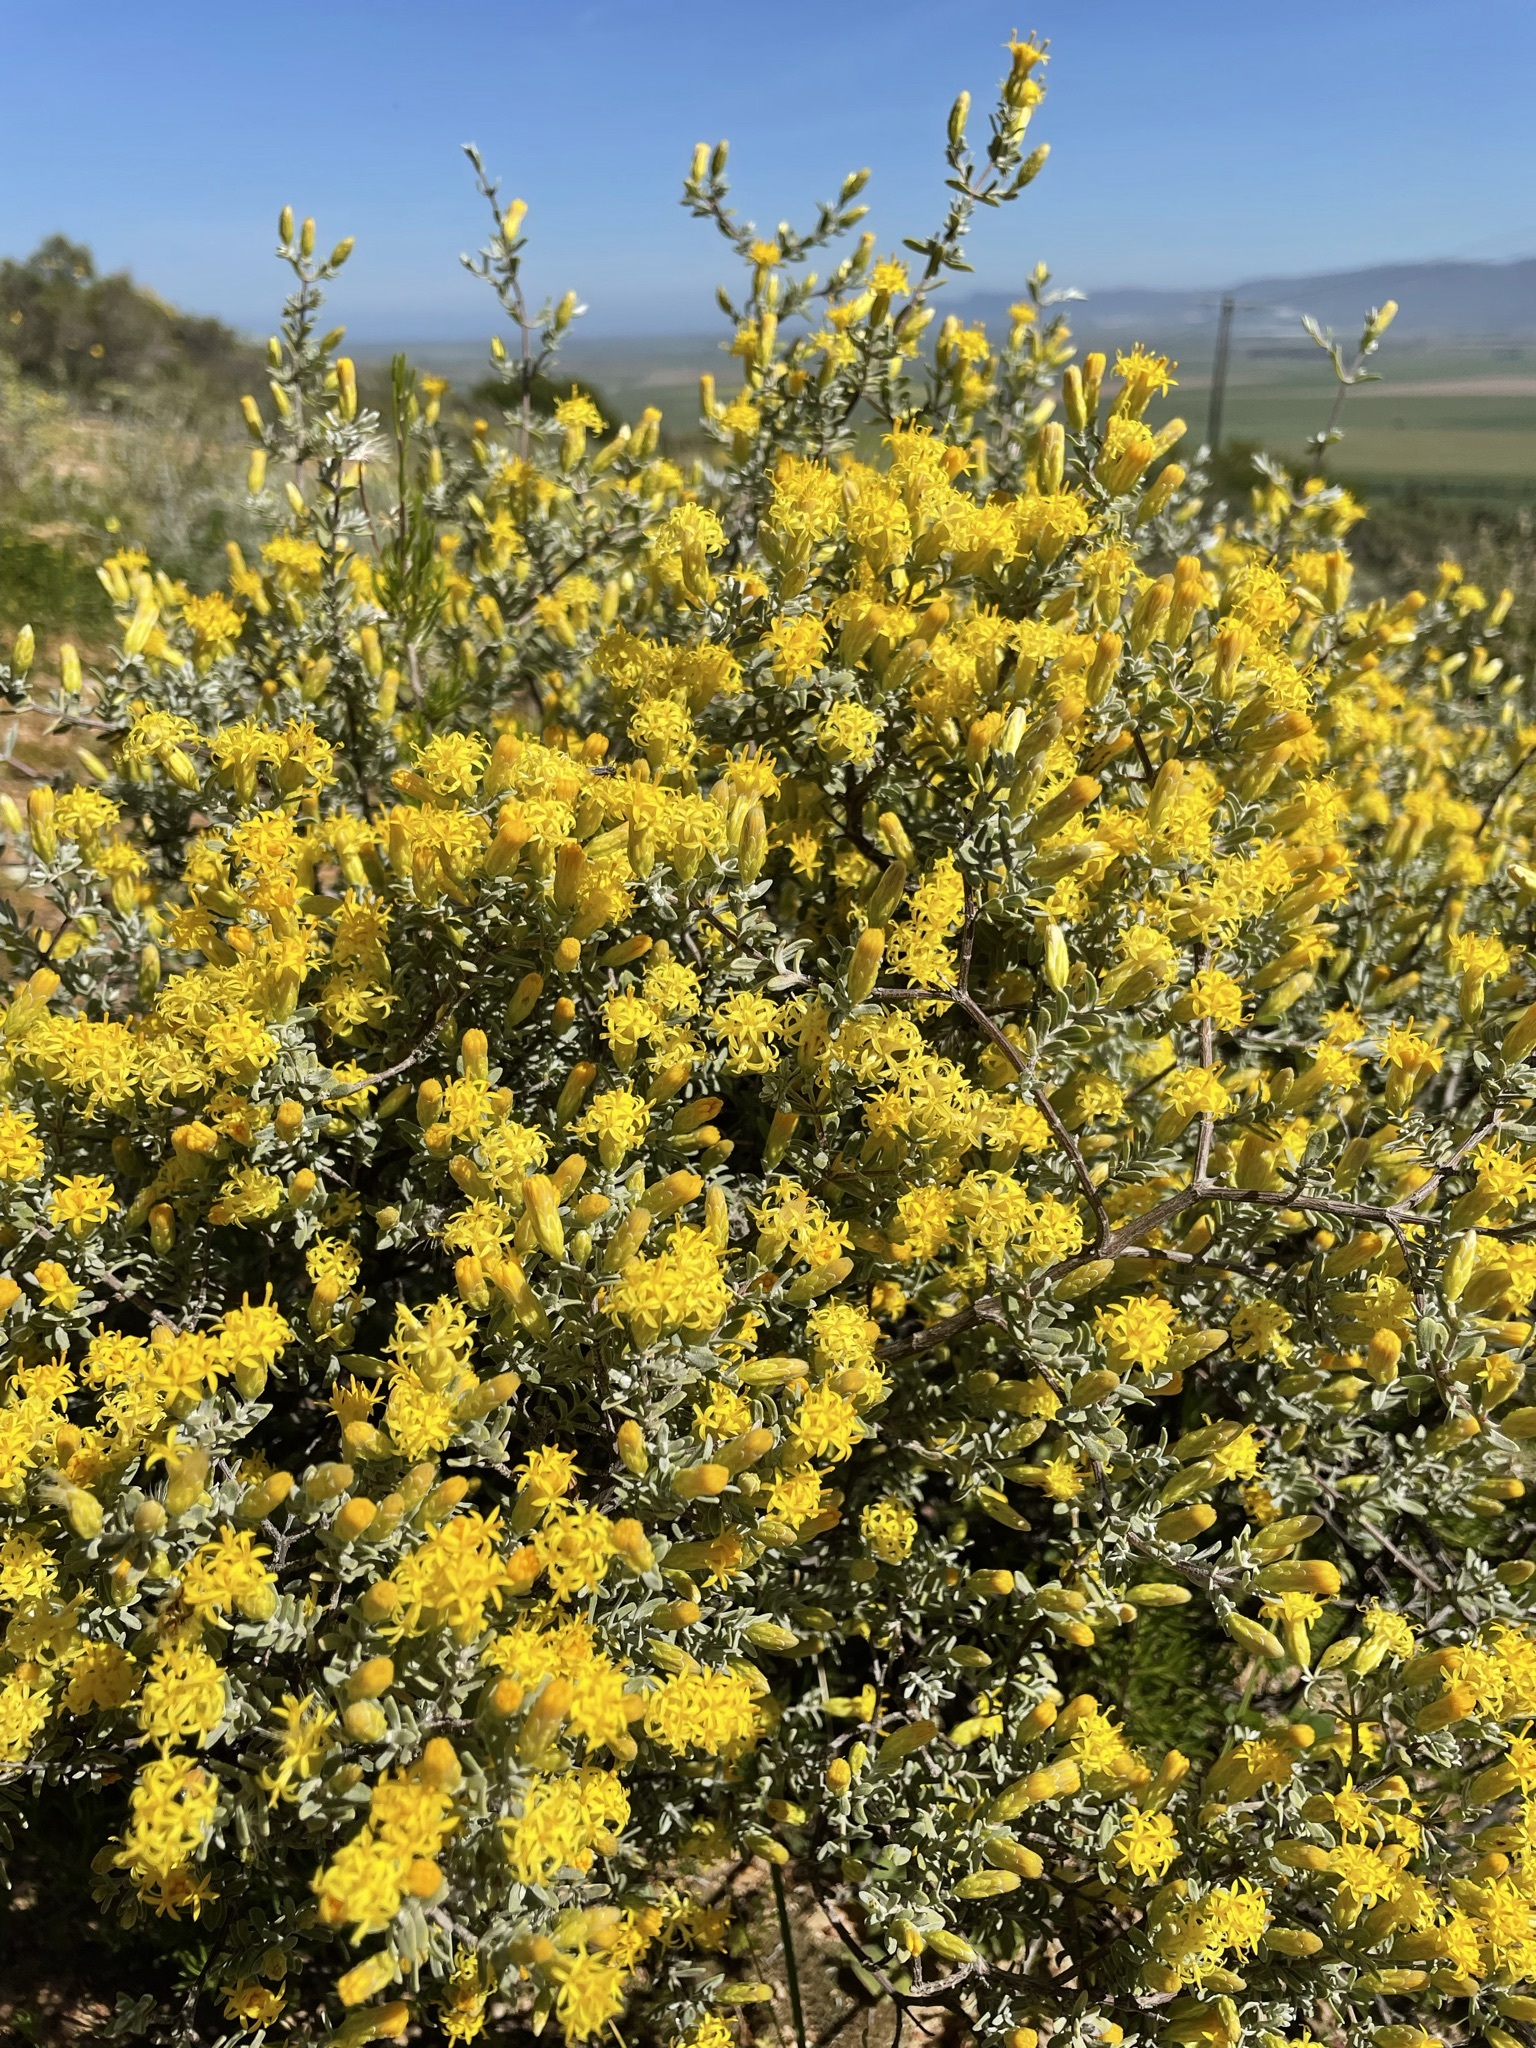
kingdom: Plantae
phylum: Tracheophyta
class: Magnoliopsida
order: Asterales
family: Asteraceae
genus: Pteronia
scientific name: Pteronia incana
